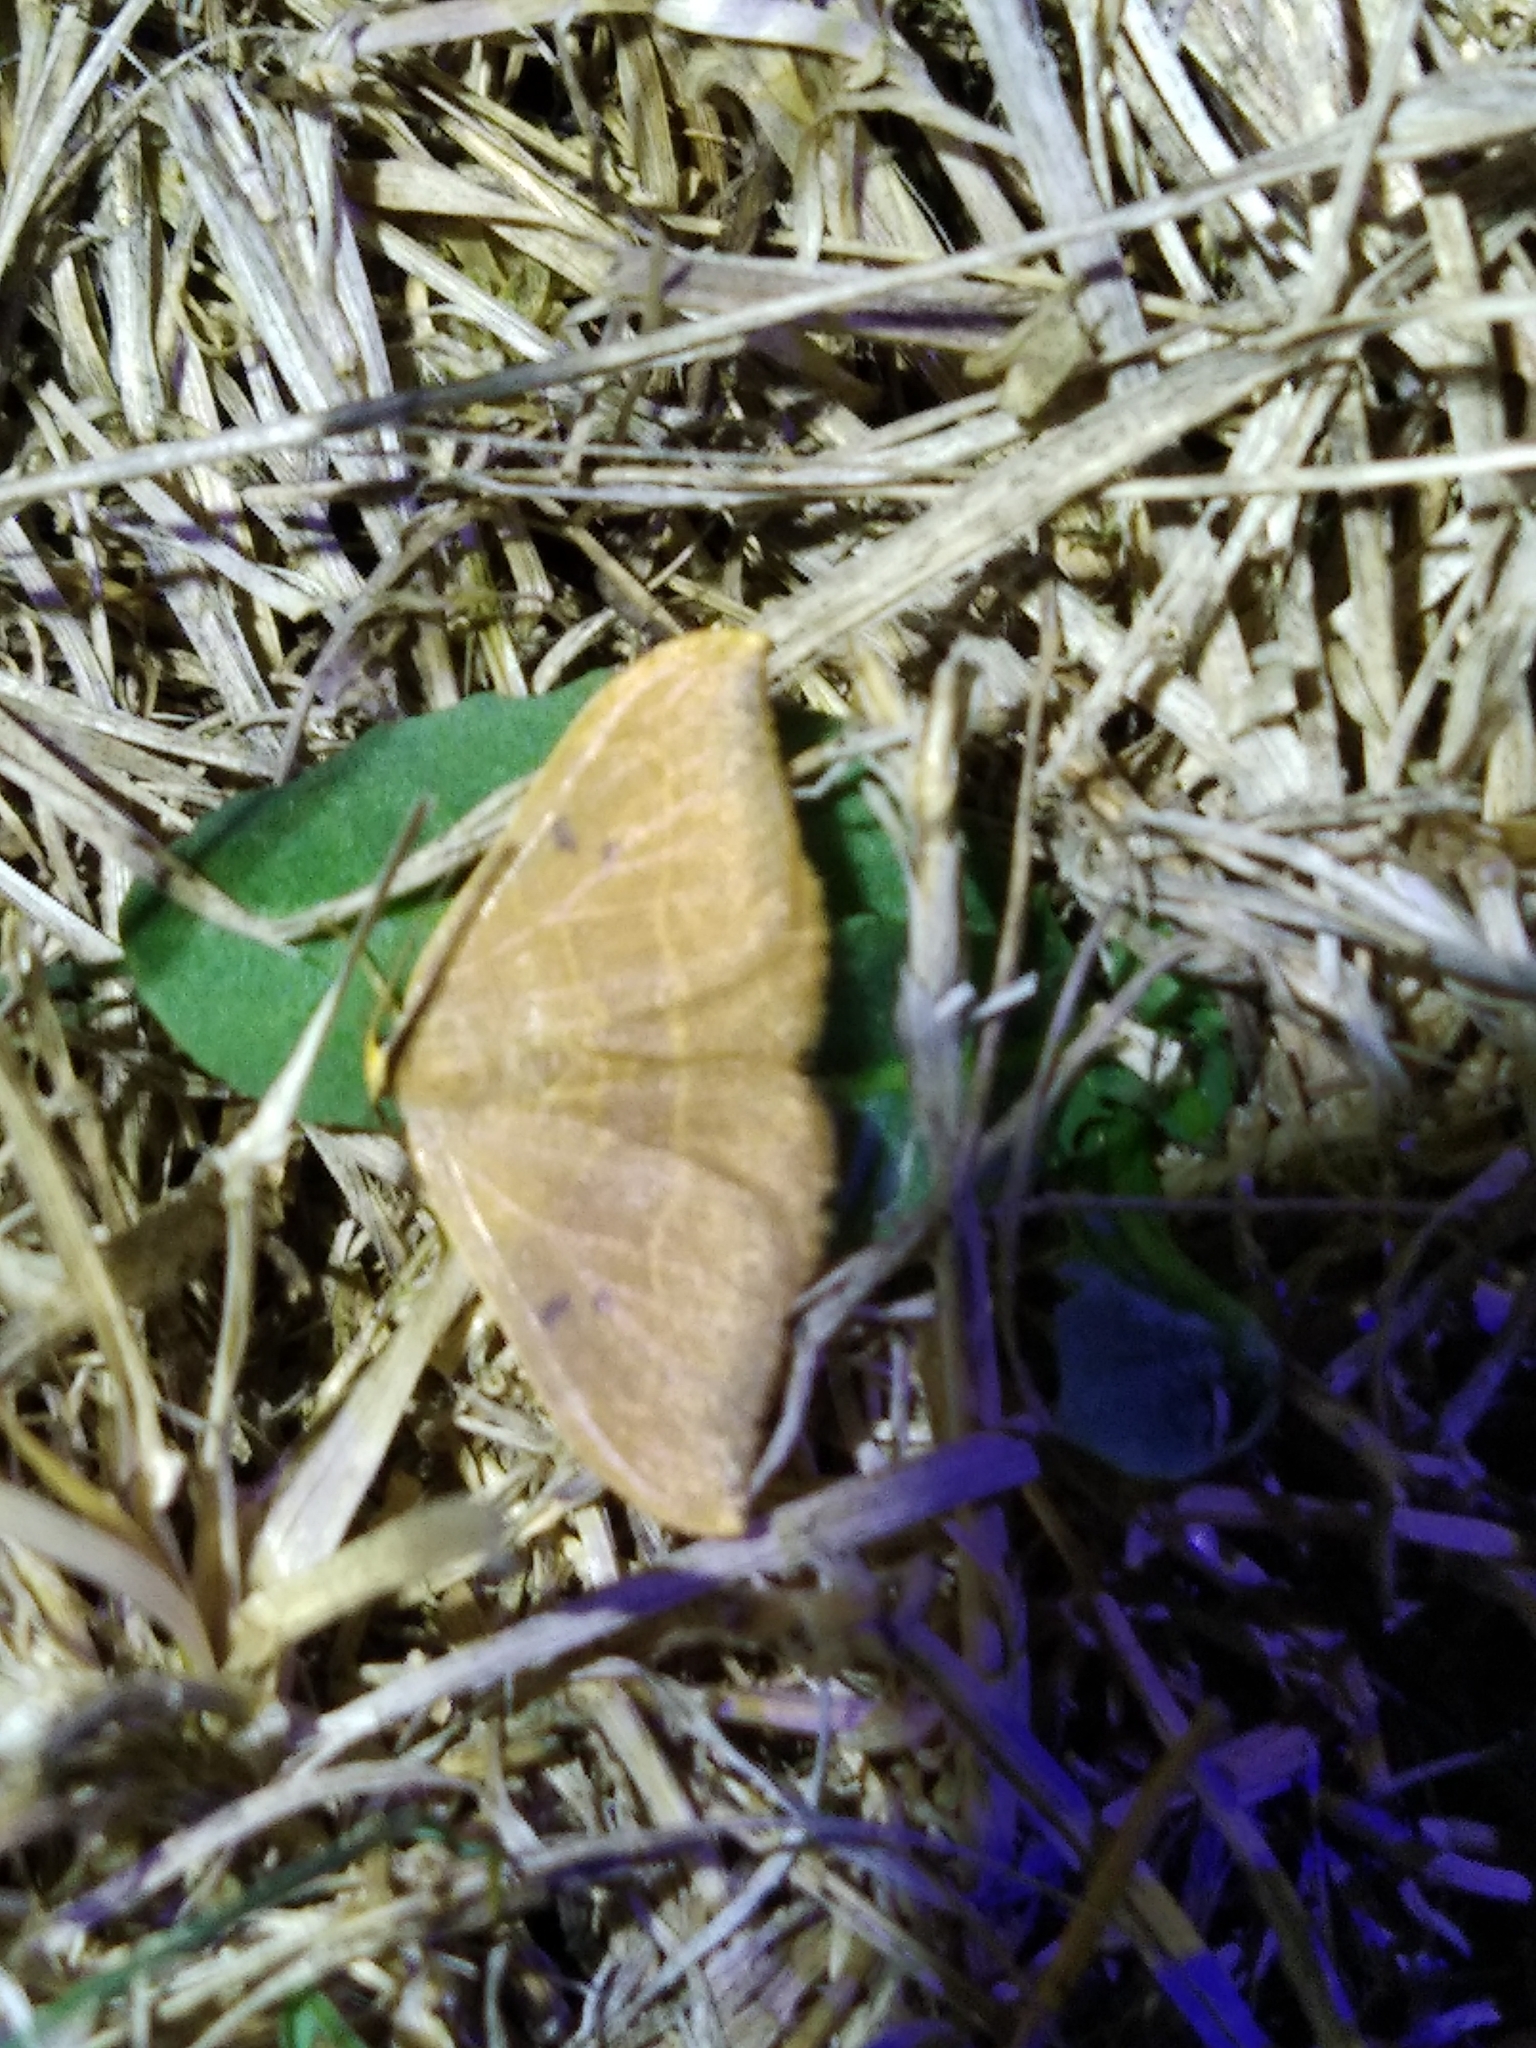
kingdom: Animalia
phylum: Arthropoda
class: Insecta
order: Lepidoptera
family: Drepanidae
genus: Watsonalla
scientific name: Watsonalla binaria
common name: Oak hook-tip
